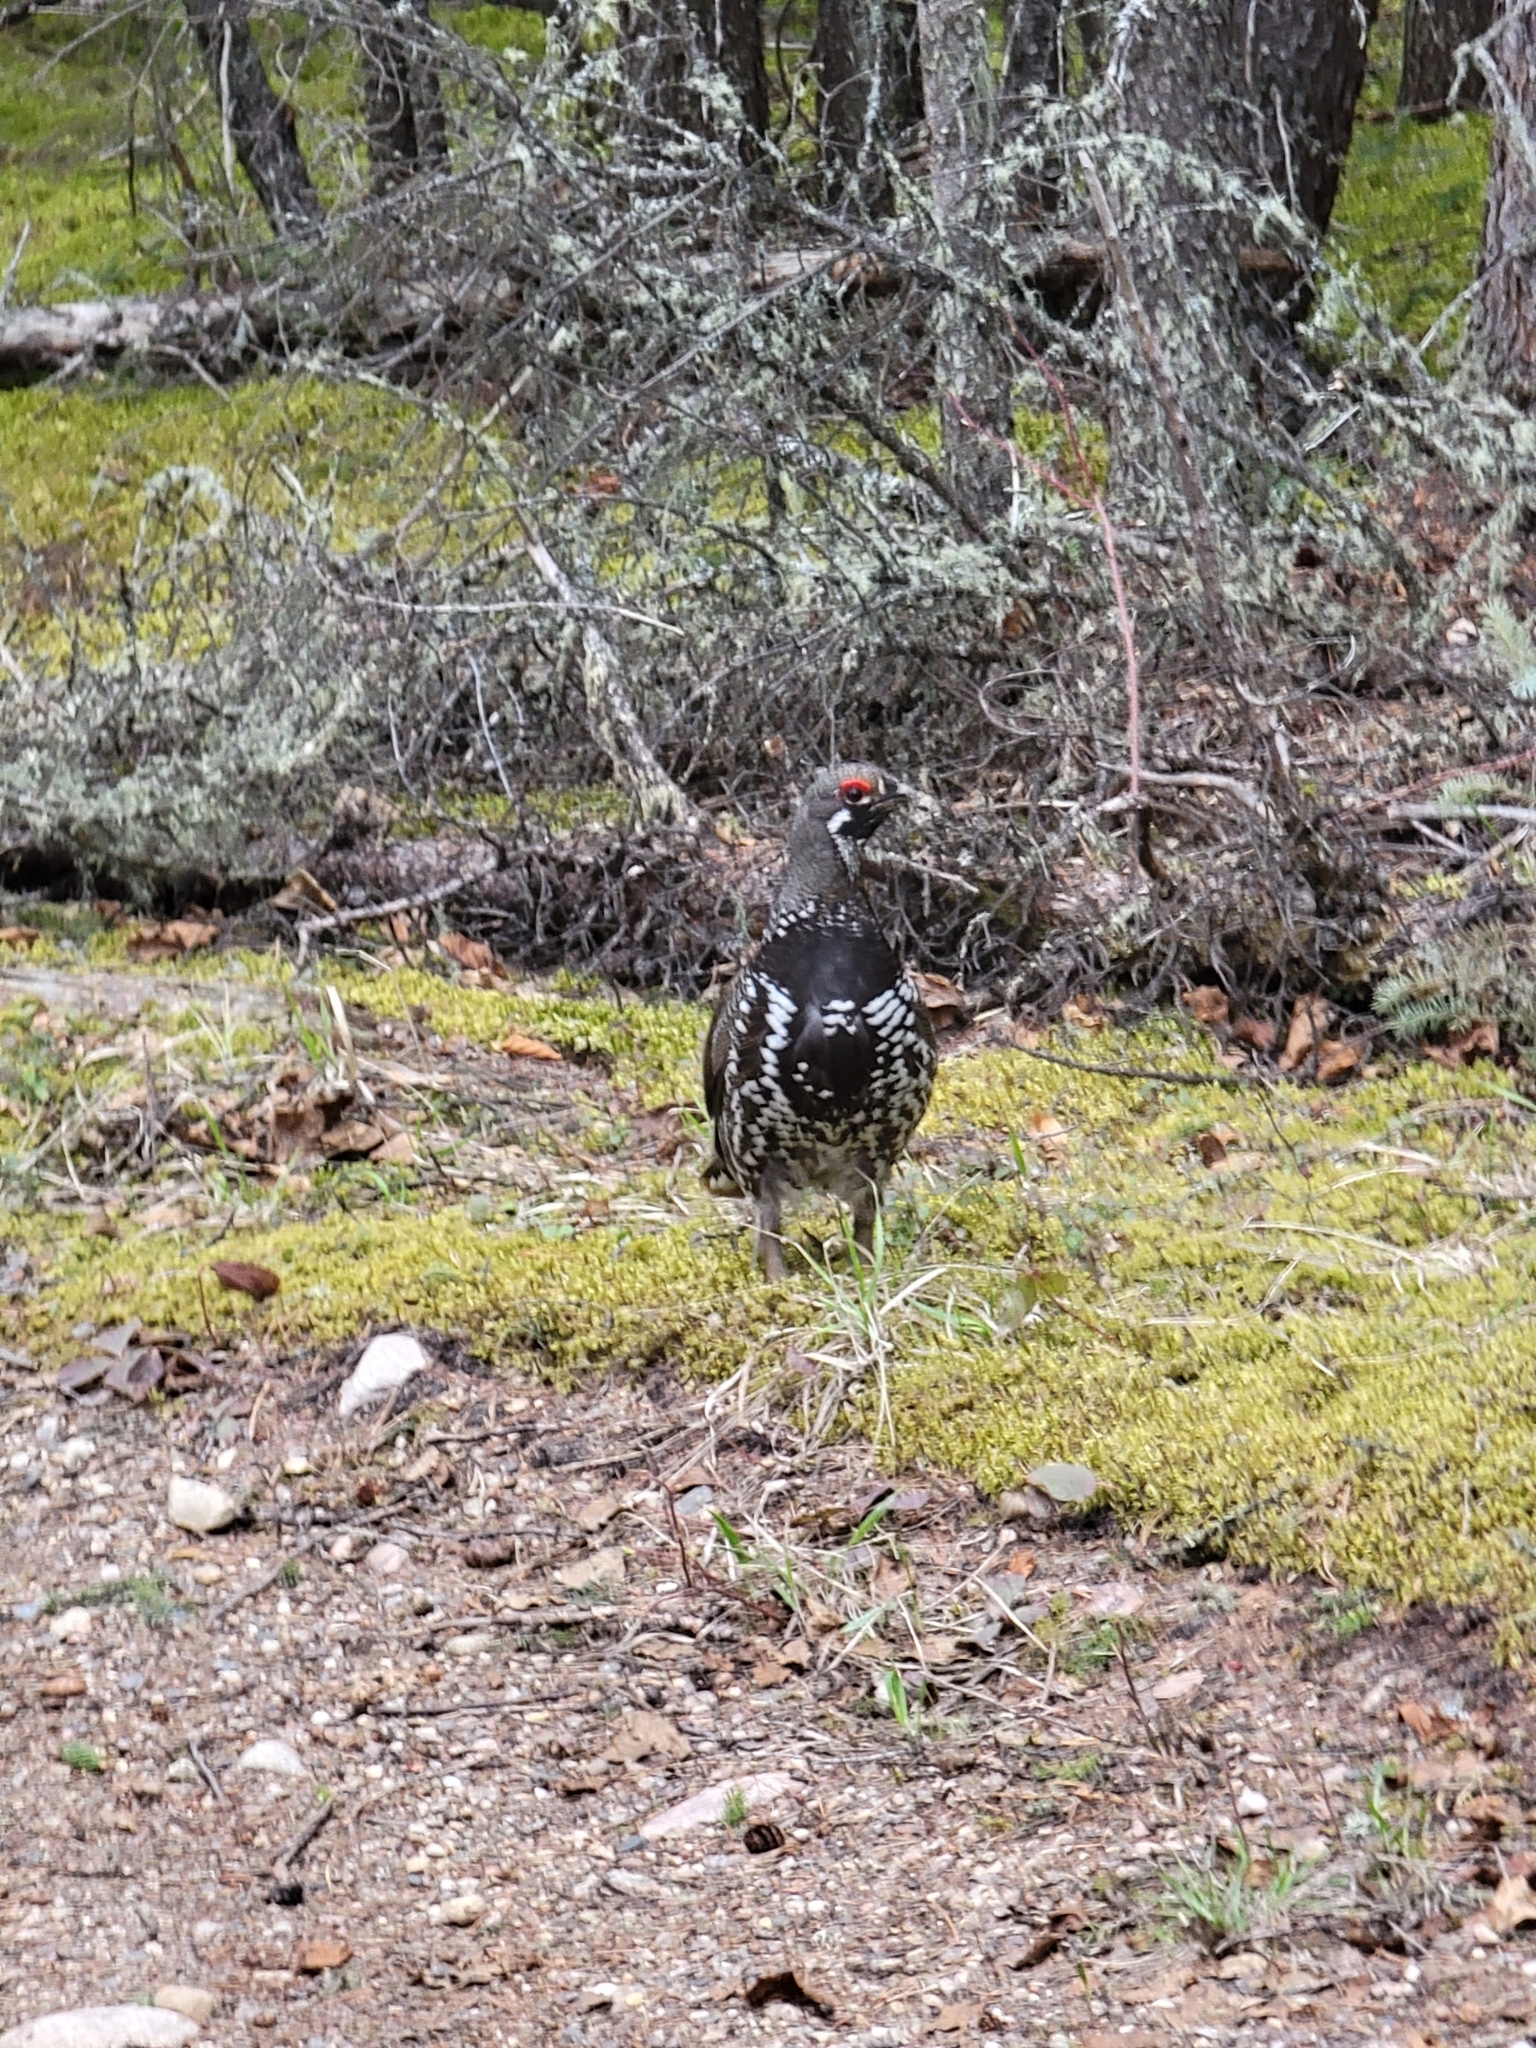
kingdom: Animalia
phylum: Chordata
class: Aves
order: Galliformes
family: Phasianidae
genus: Canachites
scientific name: Canachites canadensis
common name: Spruce grouse
